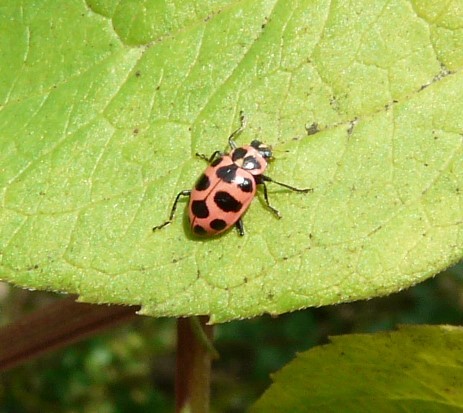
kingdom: Animalia
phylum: Arthropoda
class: Insecta
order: Coleoptera
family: Coccinellidae
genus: Coleomegilla
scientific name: Coleomegilla maculata
